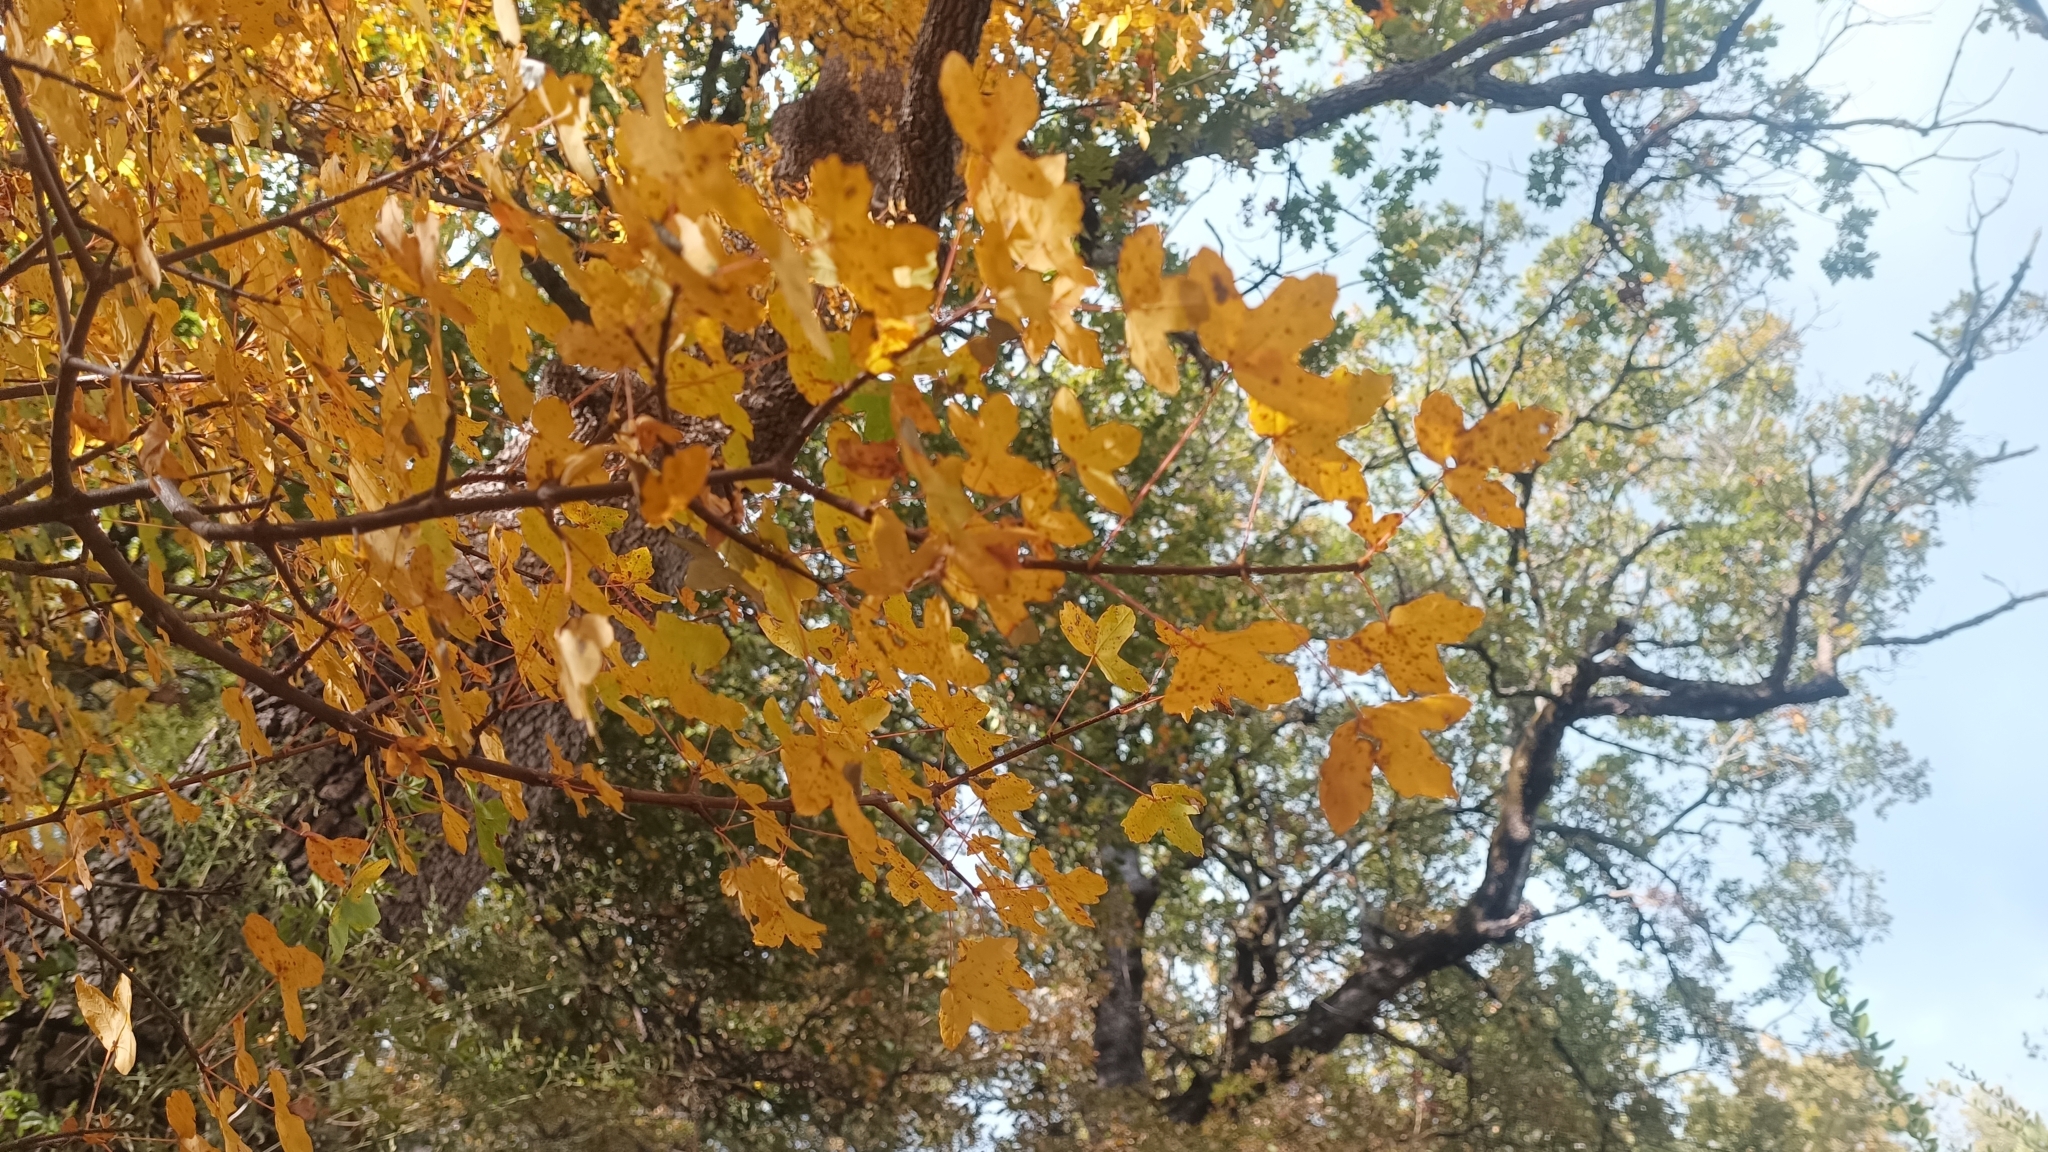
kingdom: Plantae
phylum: Tracheophyta
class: Magnoliopsida
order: Sapindales
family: Sapindaceae
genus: Acer
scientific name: Acer monspessulanum
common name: Montpellier maple
